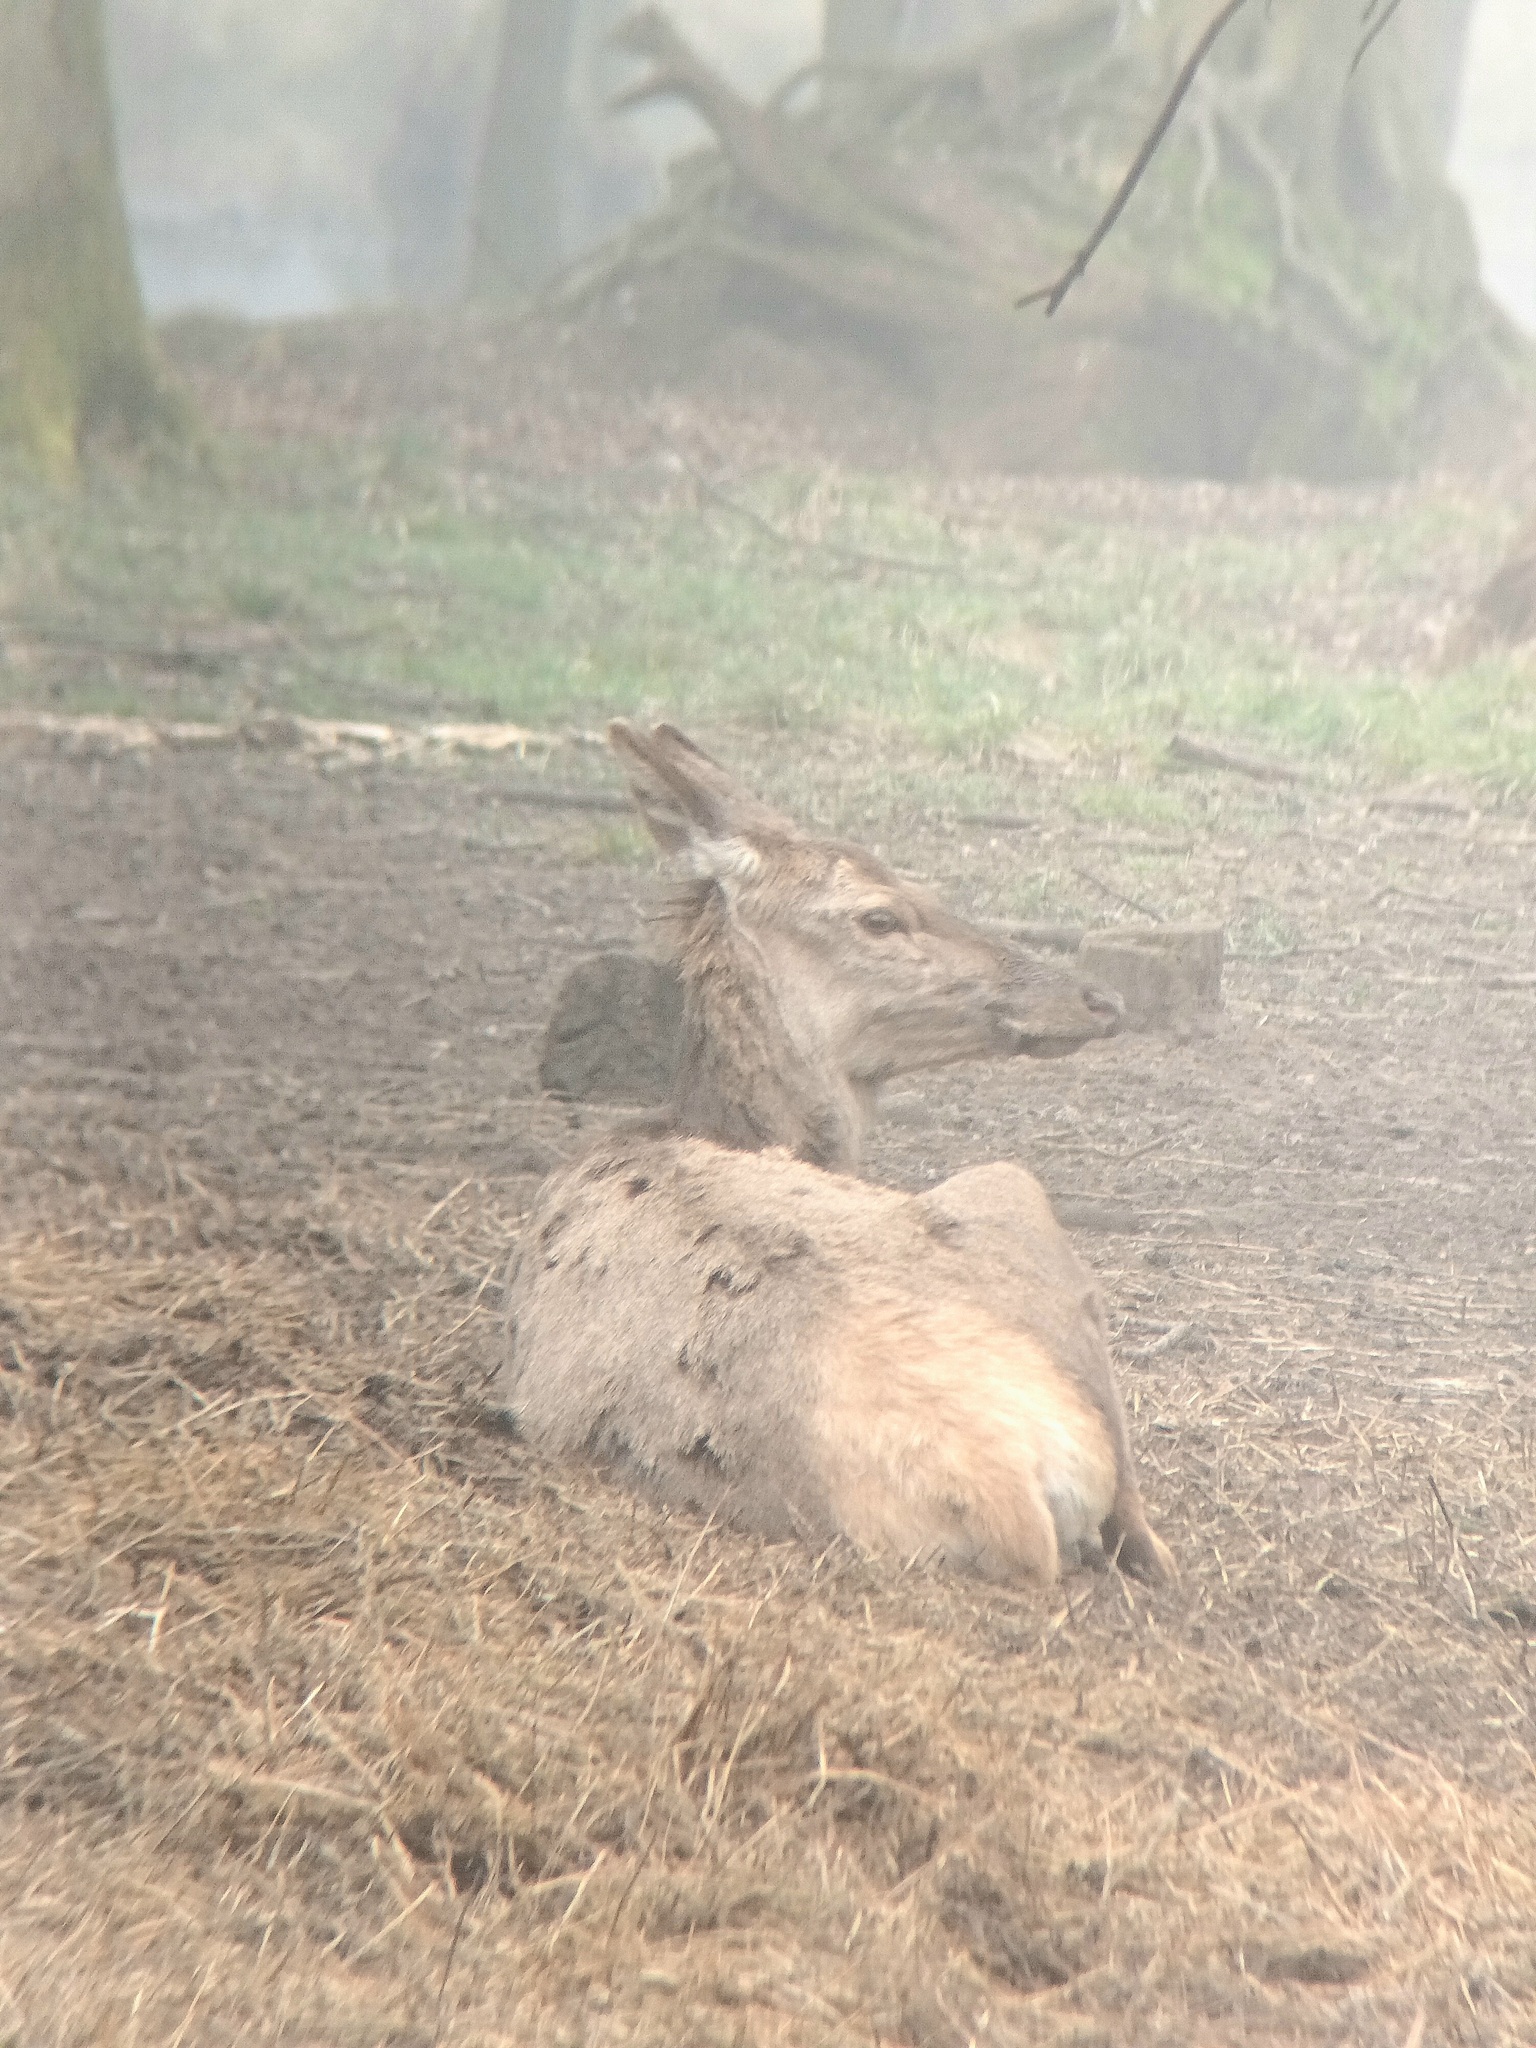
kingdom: Animalia
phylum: Chordata
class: Mammalia
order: Artiodactyla
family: Cervidae
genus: Cervus
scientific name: Cervus elaphus
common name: Red deer
